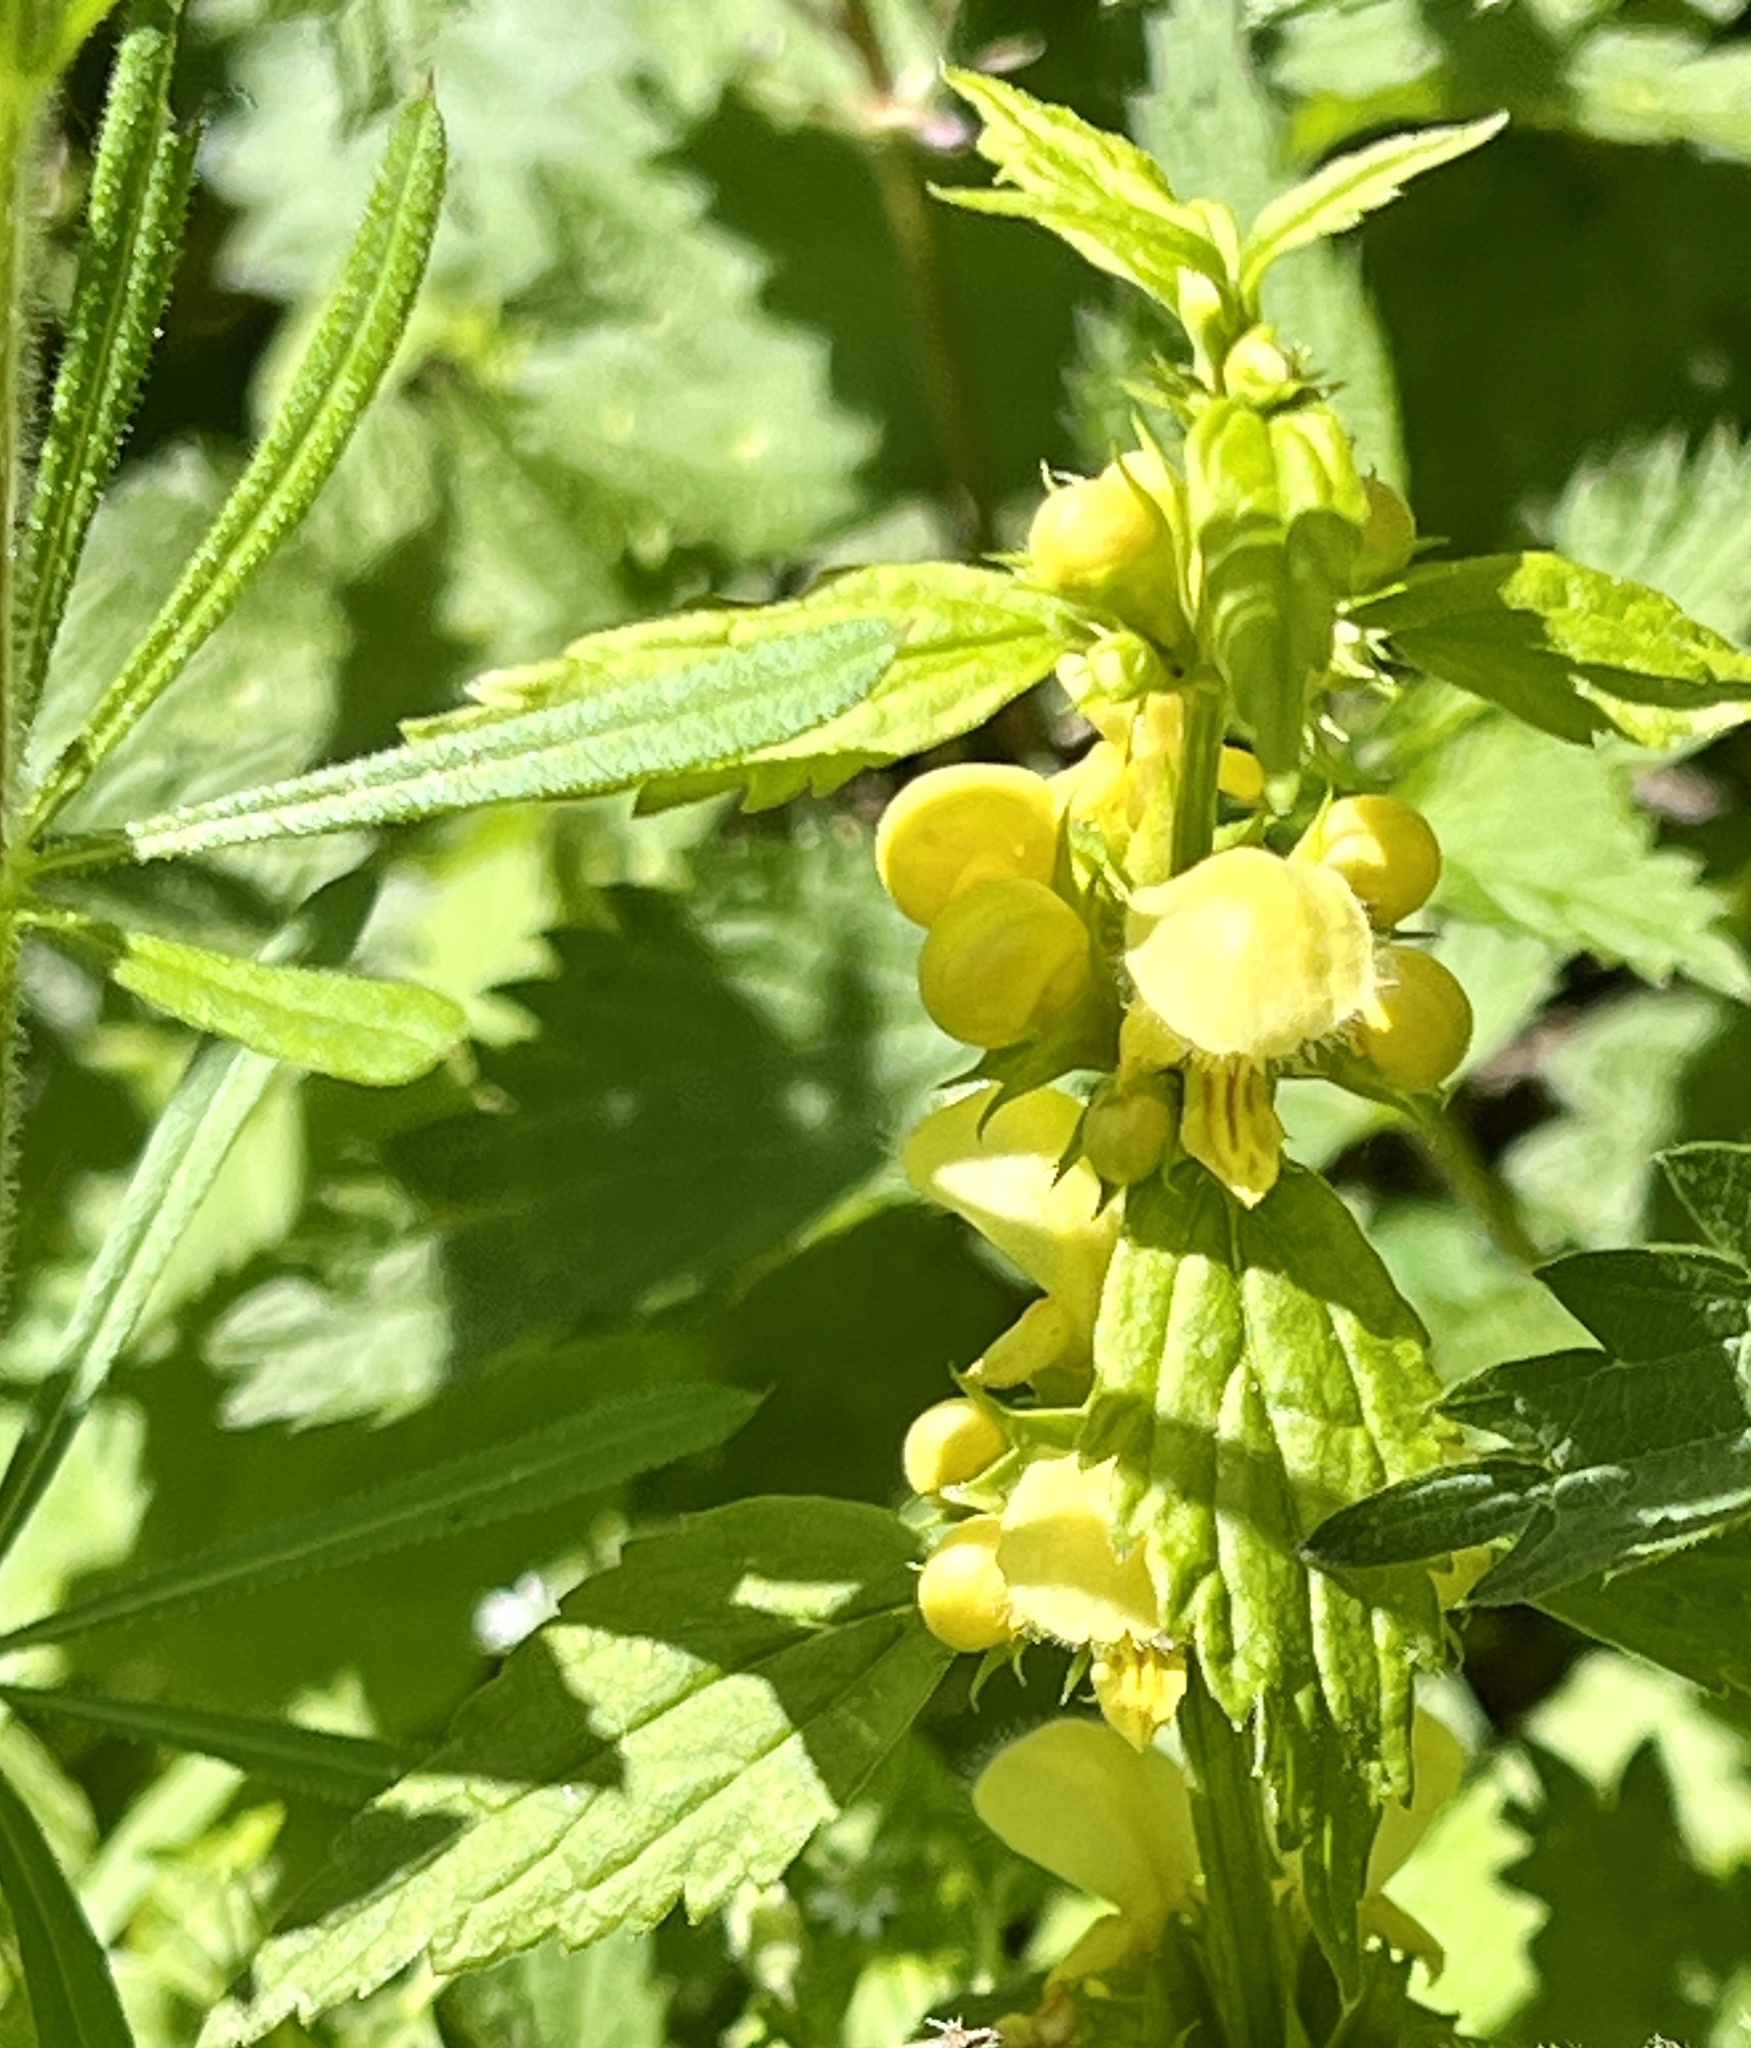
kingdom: Plantae
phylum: Tracheophyta
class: Magnoliopsida
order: Lamiales
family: Lamiaceae
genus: Lamium
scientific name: Lamium galeobdolon
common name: Yellow archangel
